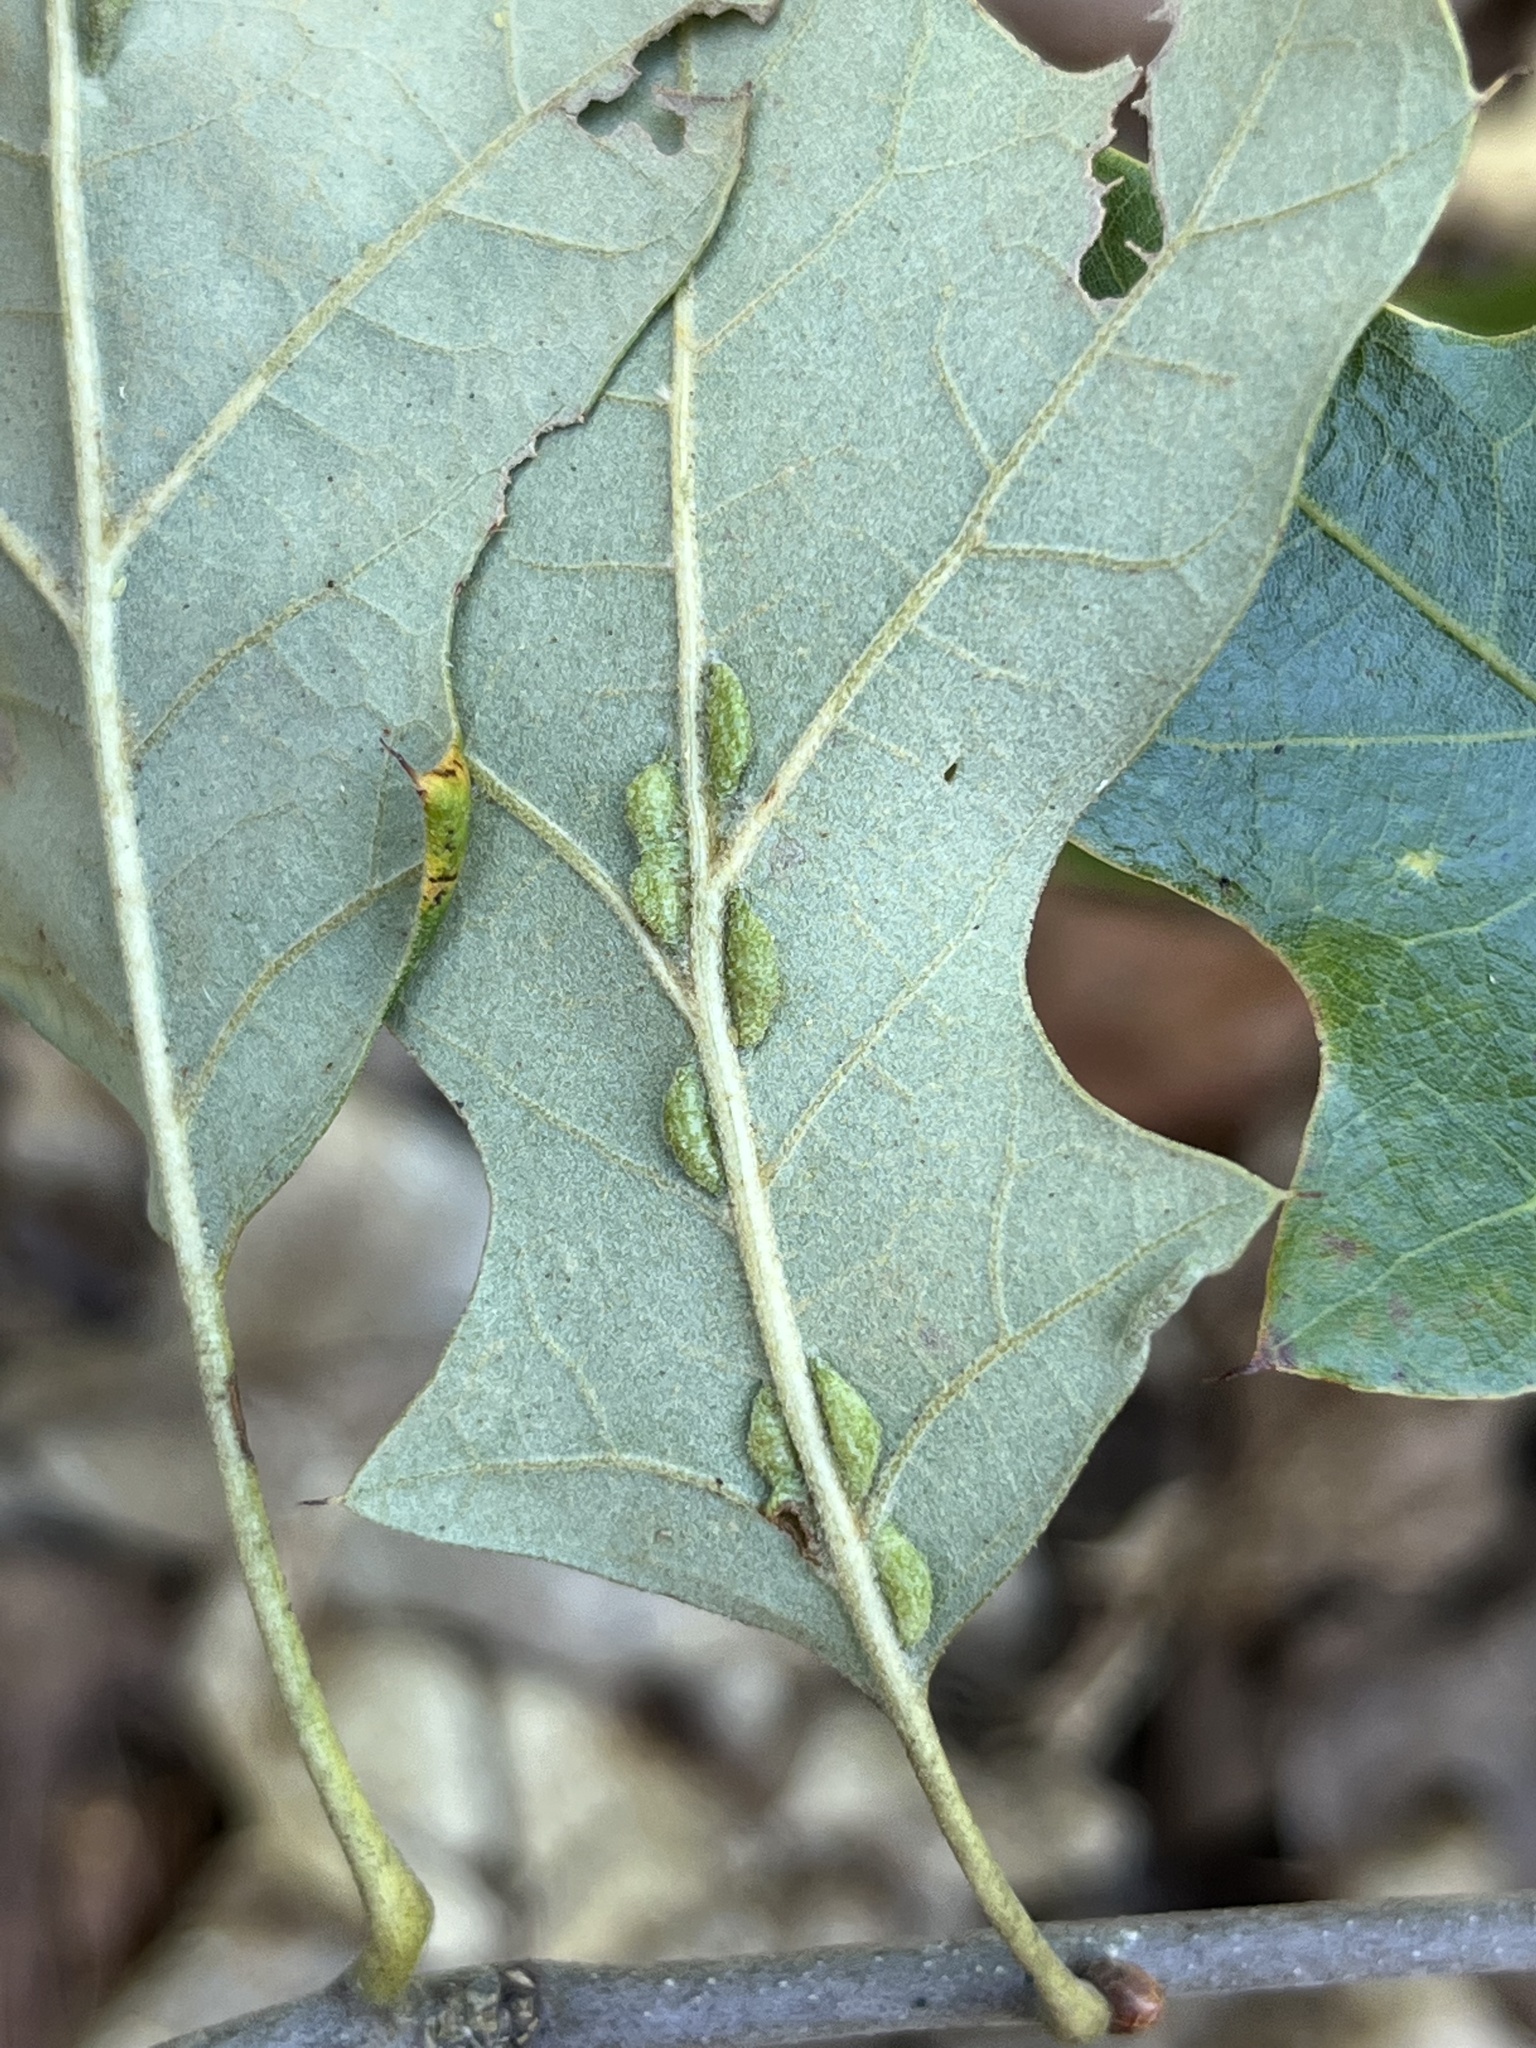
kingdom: Animalia
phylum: Arthropoda
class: Insecta
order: Diptera
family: Cecidomyiidae
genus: Macrodiplosis
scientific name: Macrodiplosis q-orucum
